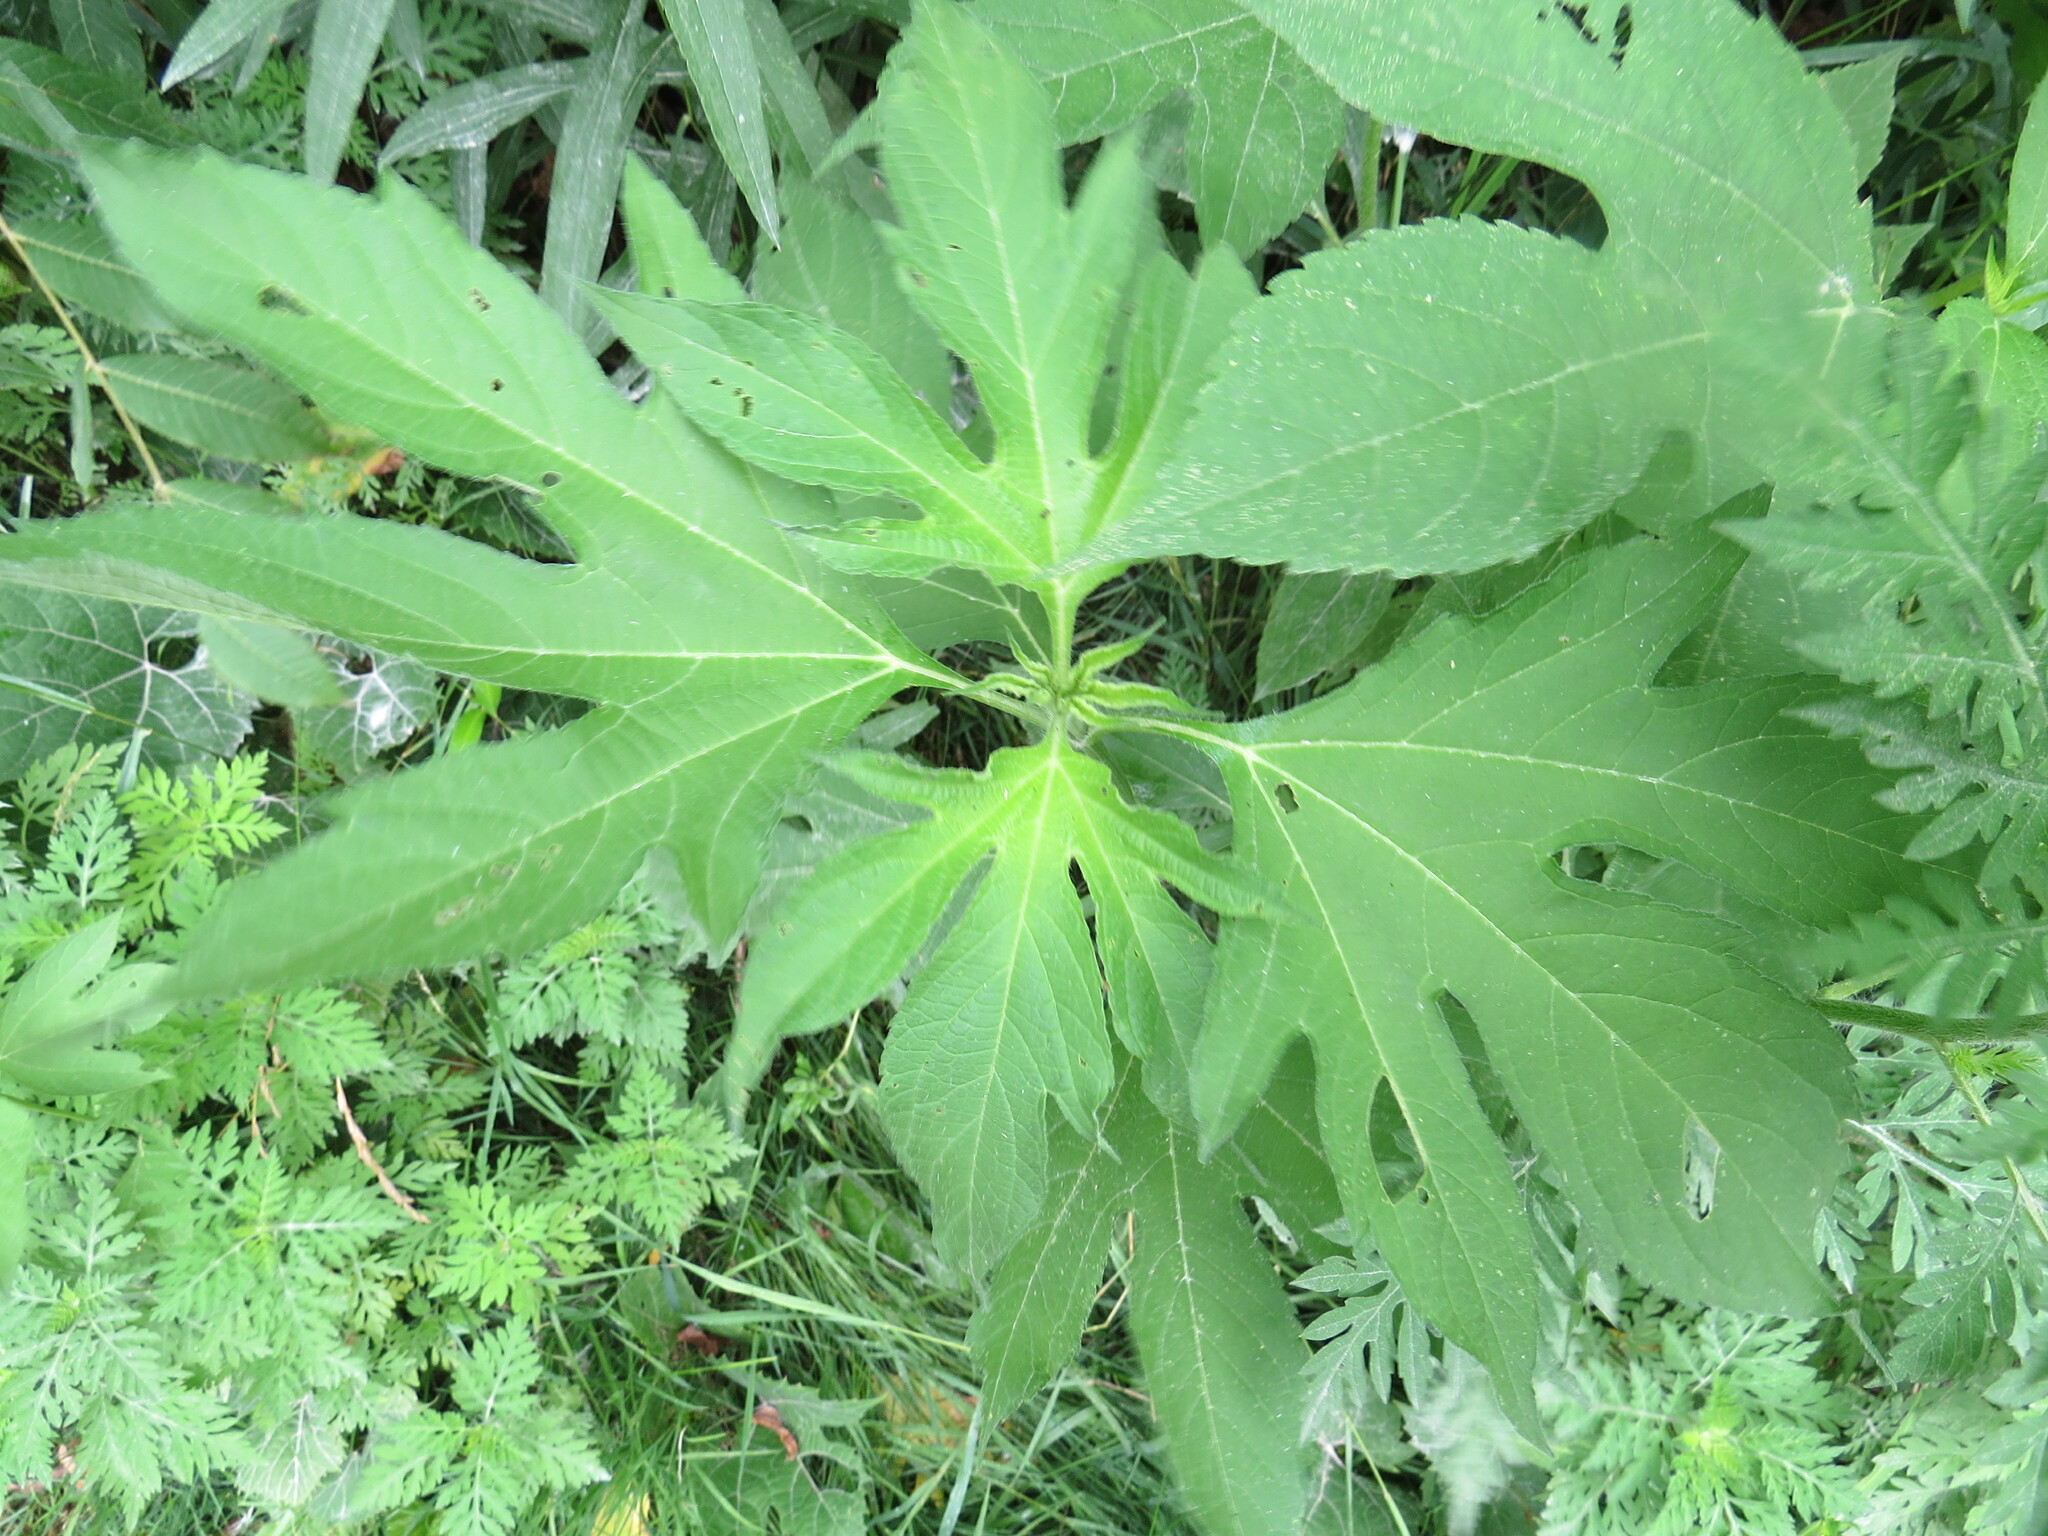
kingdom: Plantae
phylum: Tracheophyta
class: Magnoliopsida
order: Asterales
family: Asteraceae
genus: Ambrosia
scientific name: Ambrosia trifida
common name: Giant ragweed
